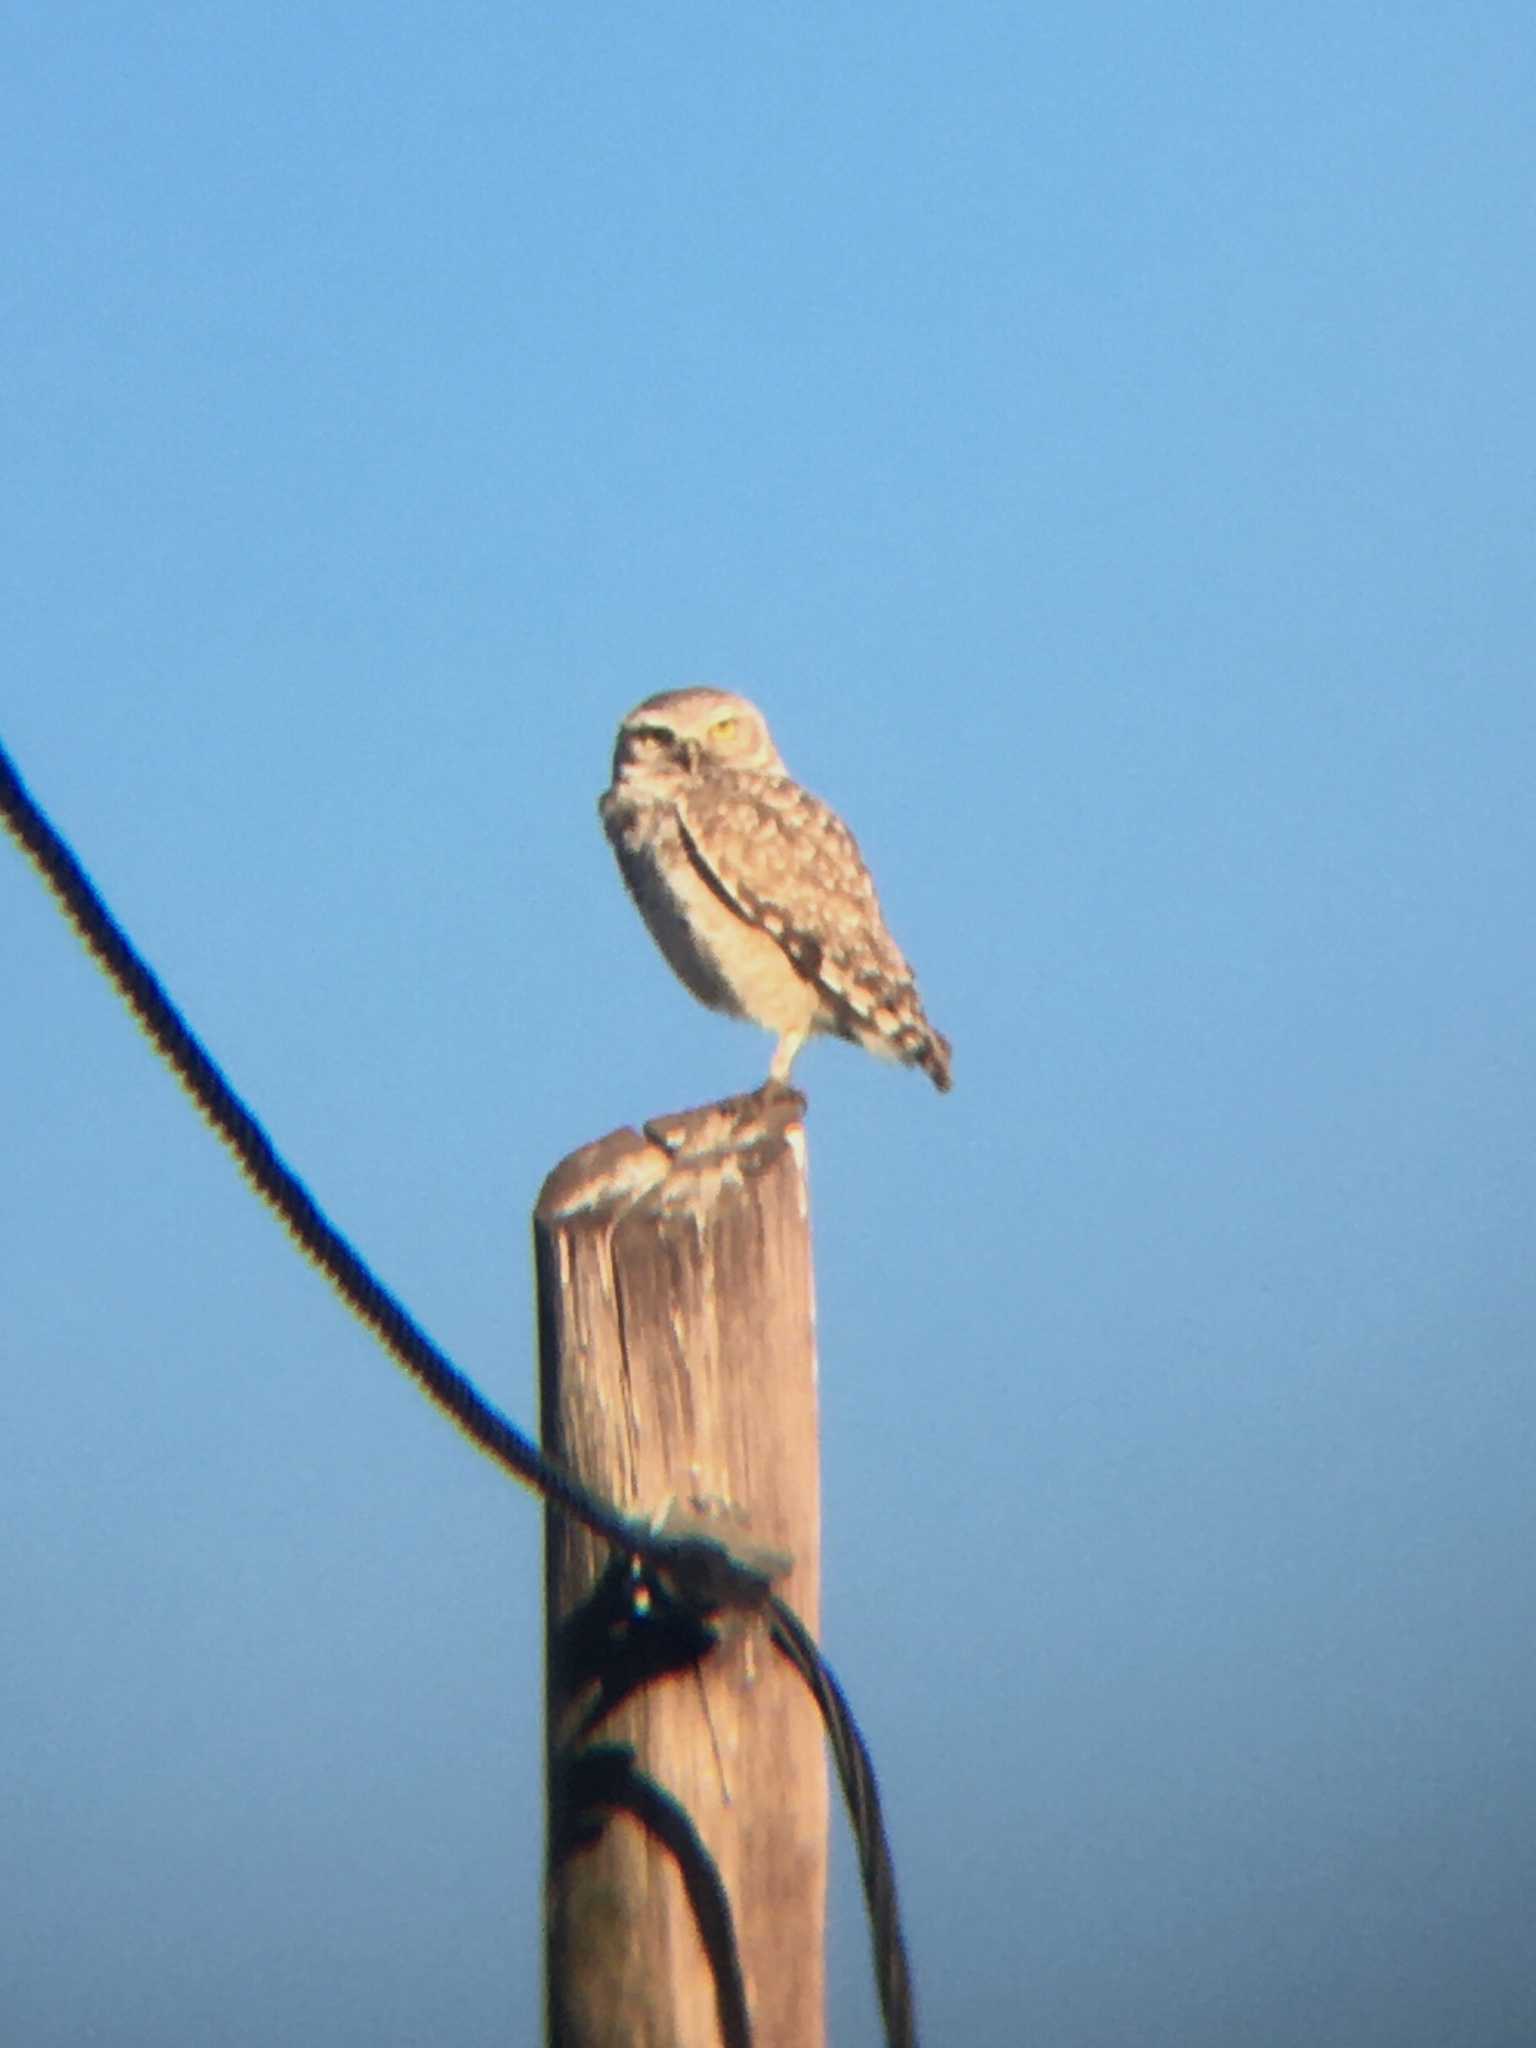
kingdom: Animalia
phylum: Chordata
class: Aves
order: Strigiformes
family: Strigidae
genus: Athene
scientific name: Athene cunicularia
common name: Burrowing owl
